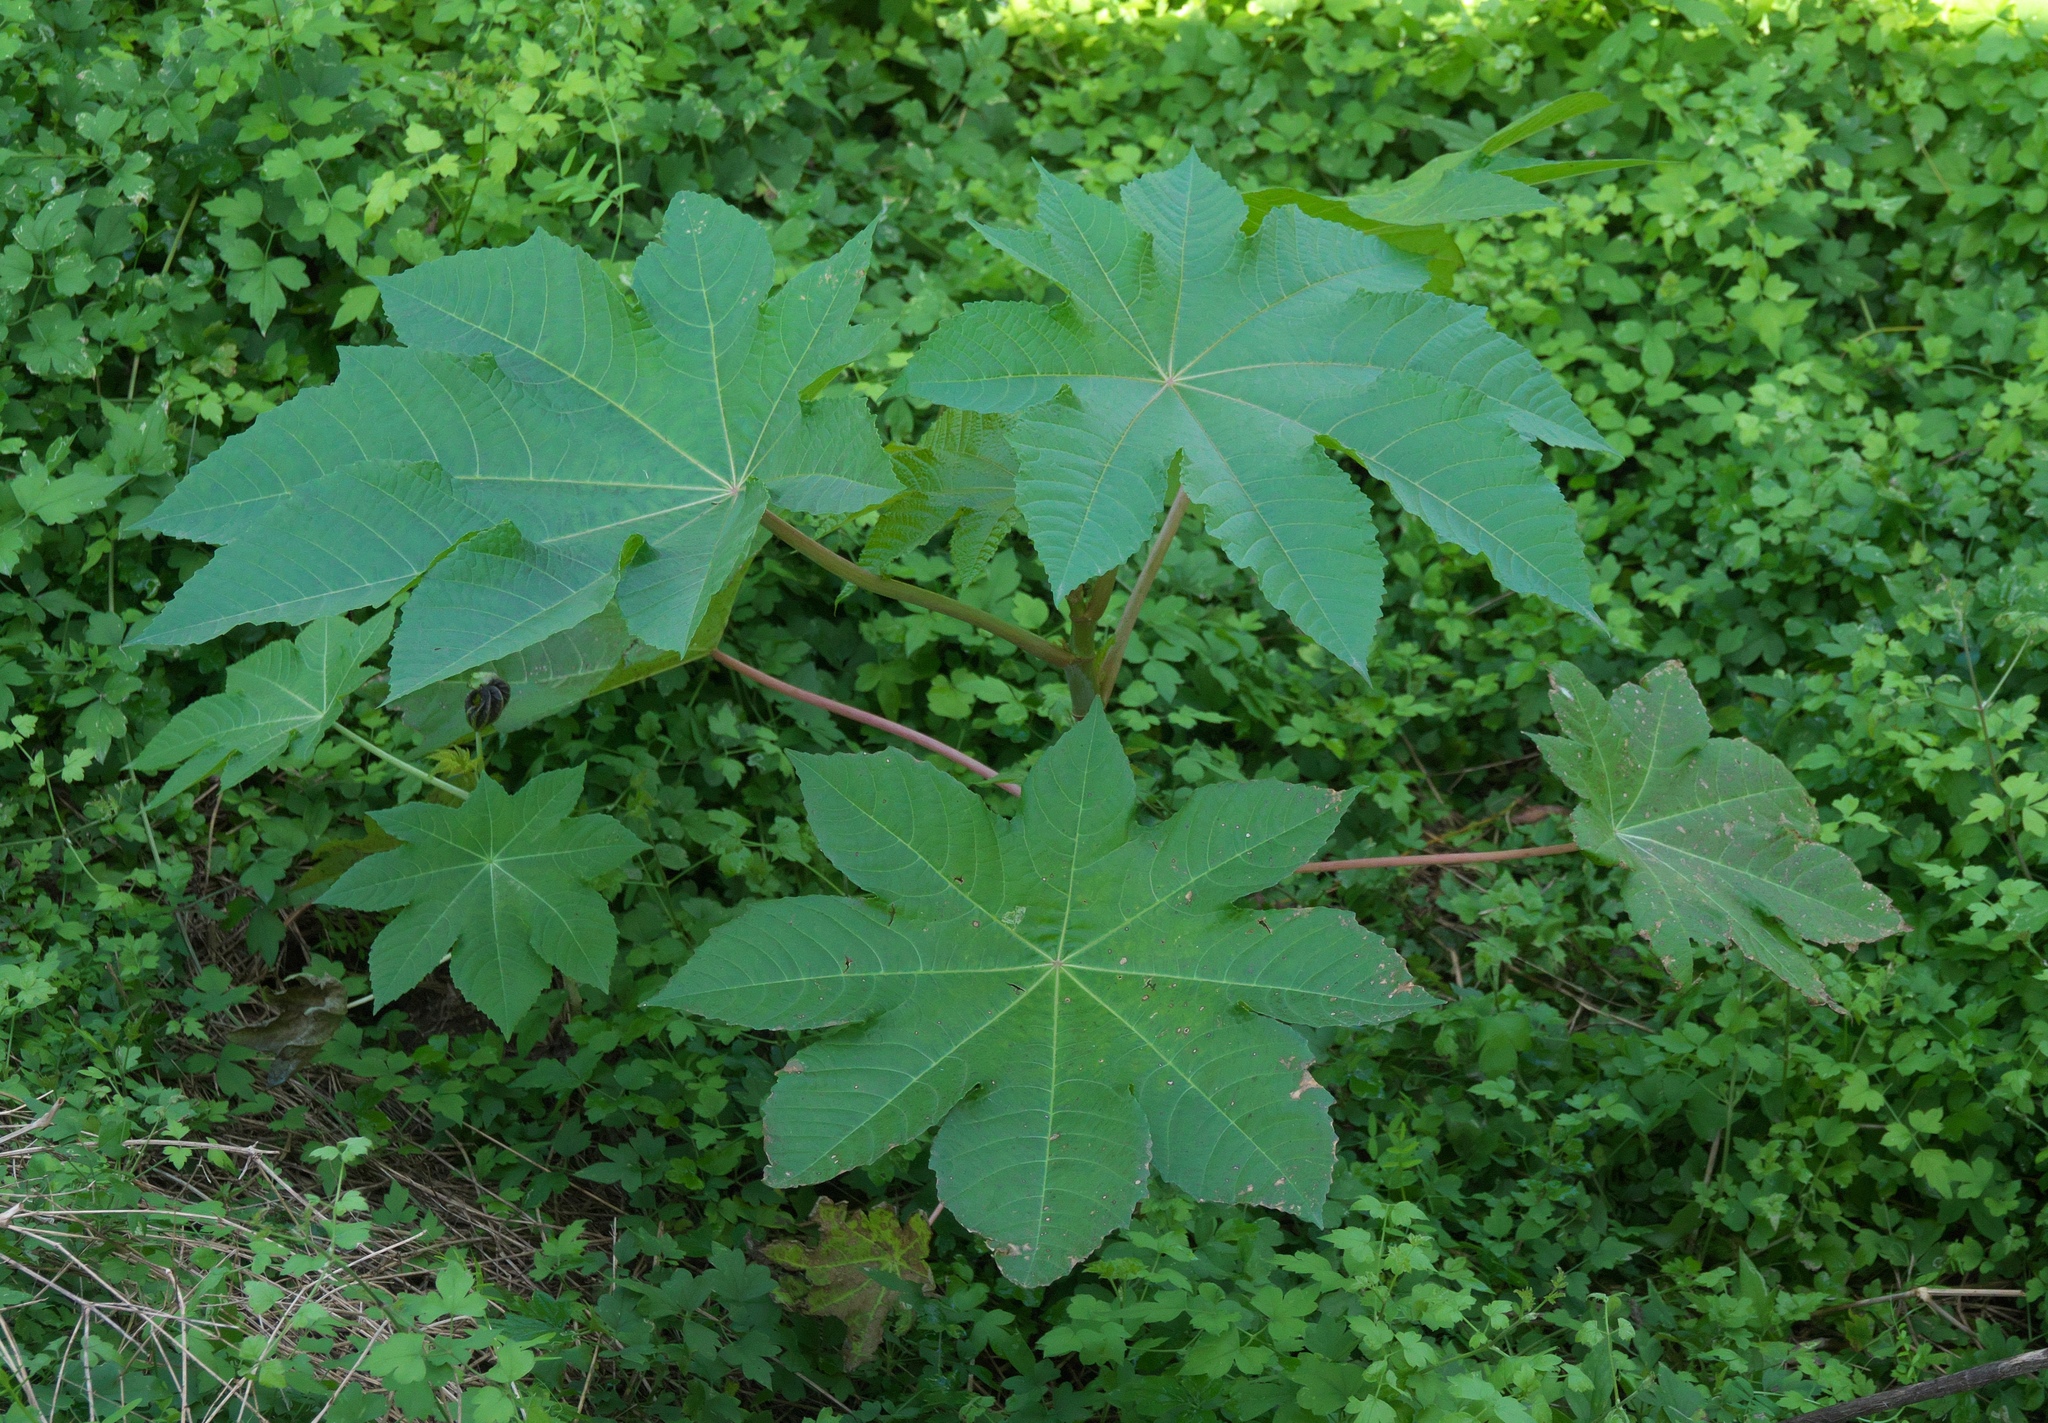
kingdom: Plantae
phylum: Tracheophyta
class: Magnoliopsida
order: Malpighiales
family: Euphorbiaceae
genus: Ricinus
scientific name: Ricinus communis
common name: Castor-oil-plant
